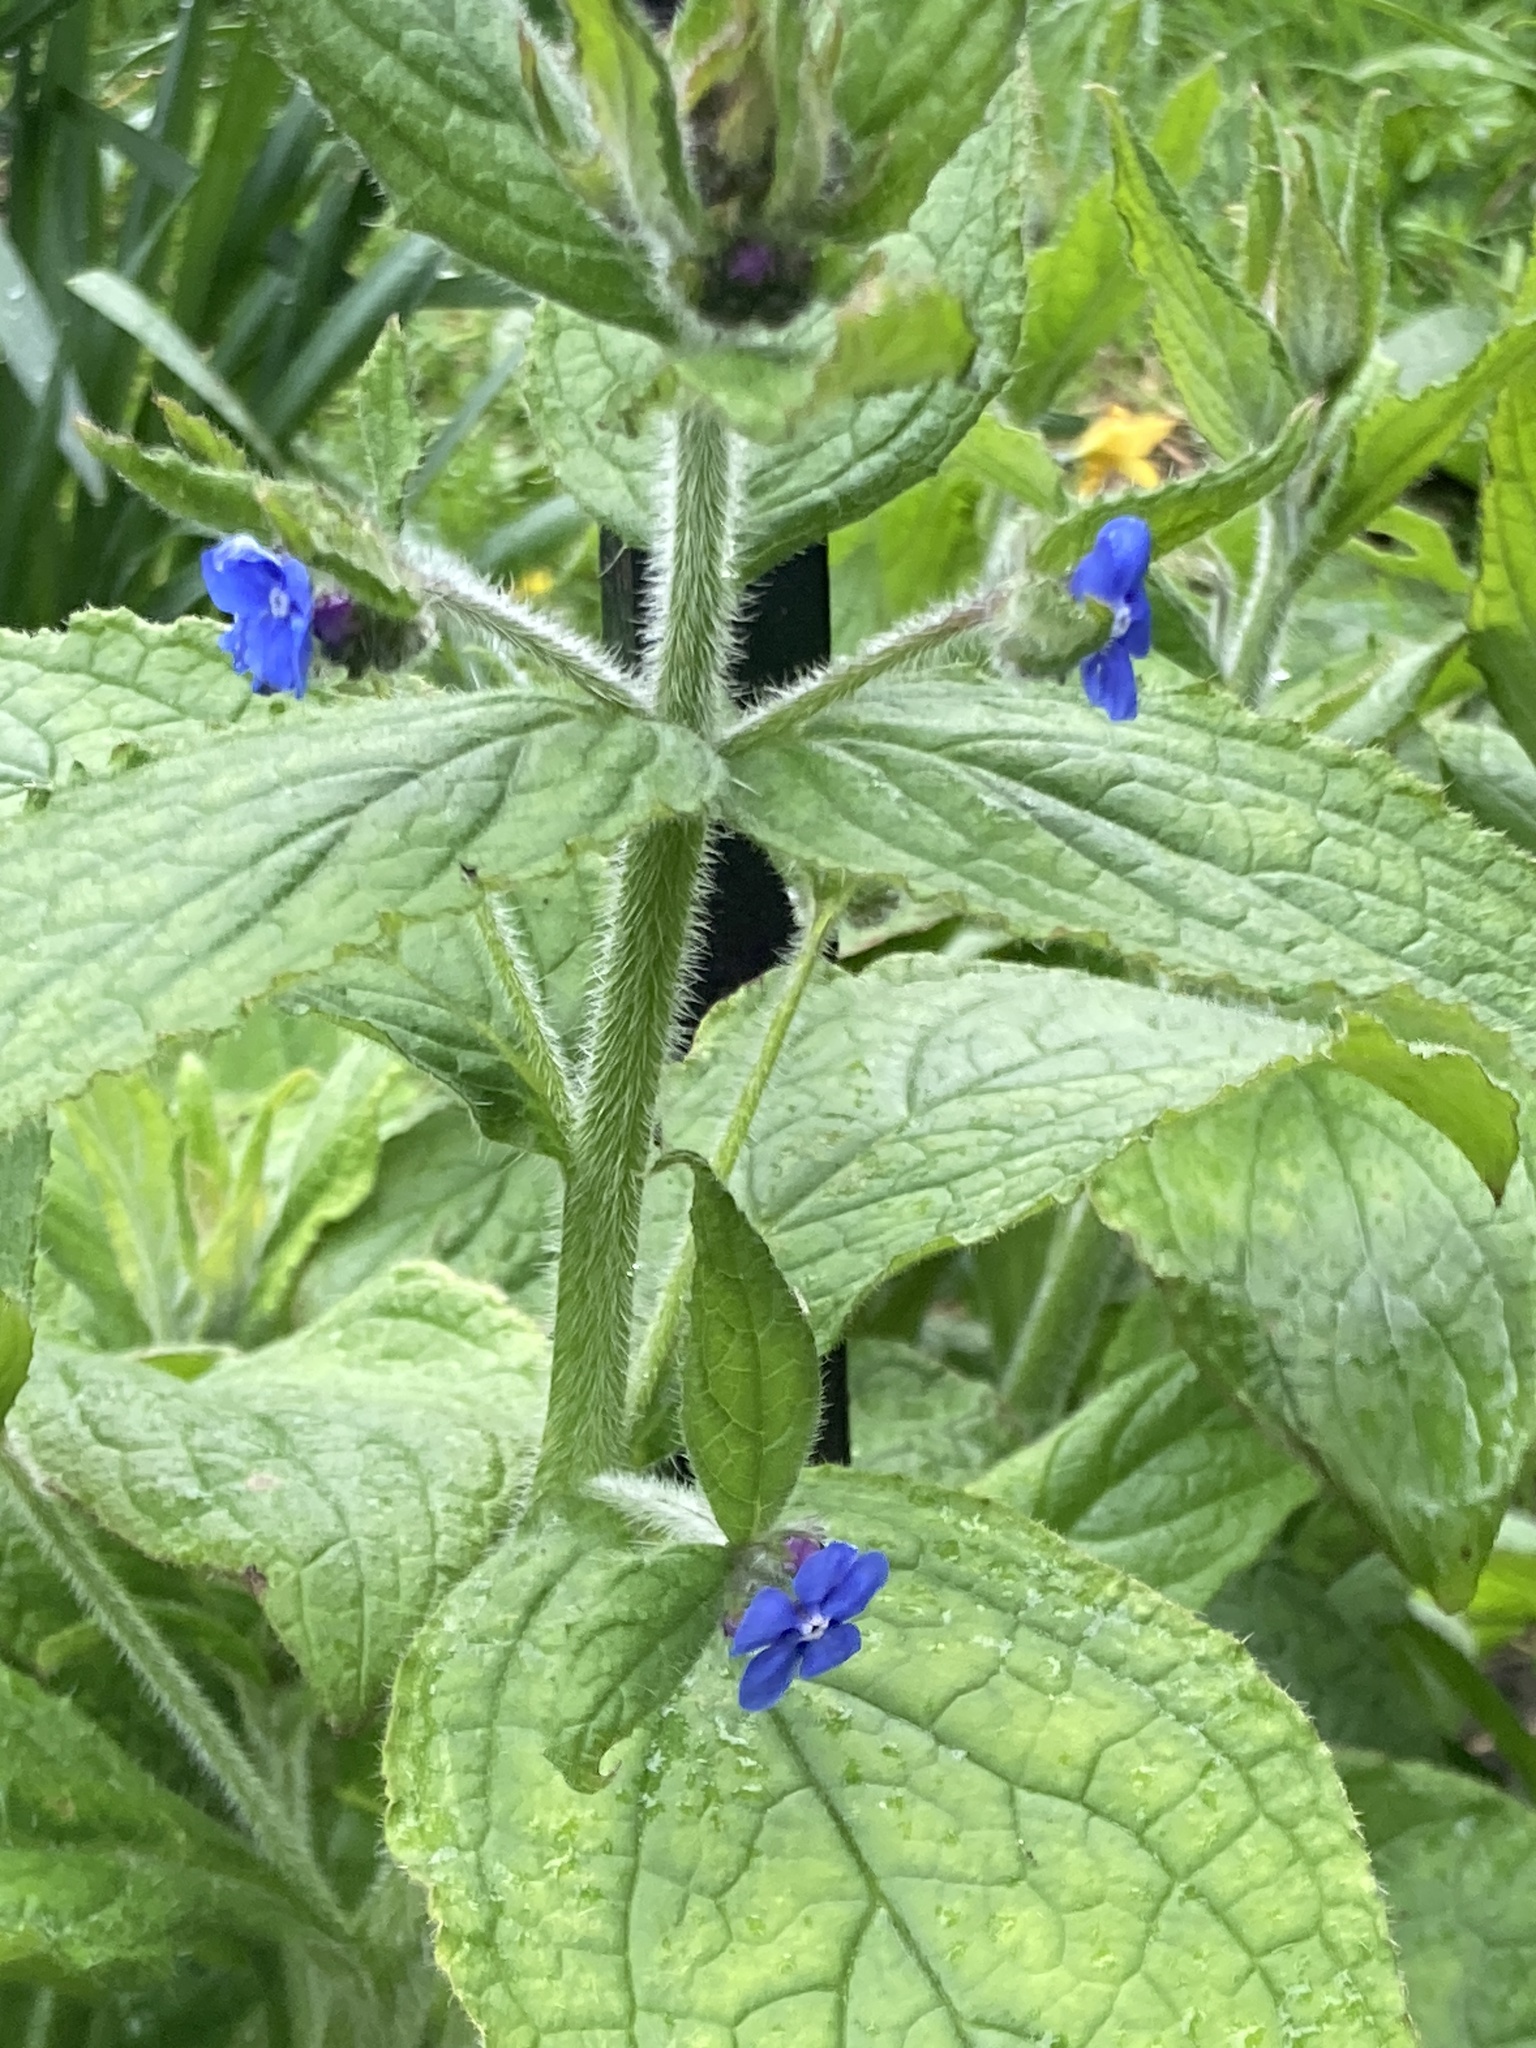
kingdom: Plantae
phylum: Tracheophyta
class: Magnoliopsida
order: Boraginales
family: Boraginaceae
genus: Pentaglottis
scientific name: Pentaglottis sempervirens
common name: Green alkanet
